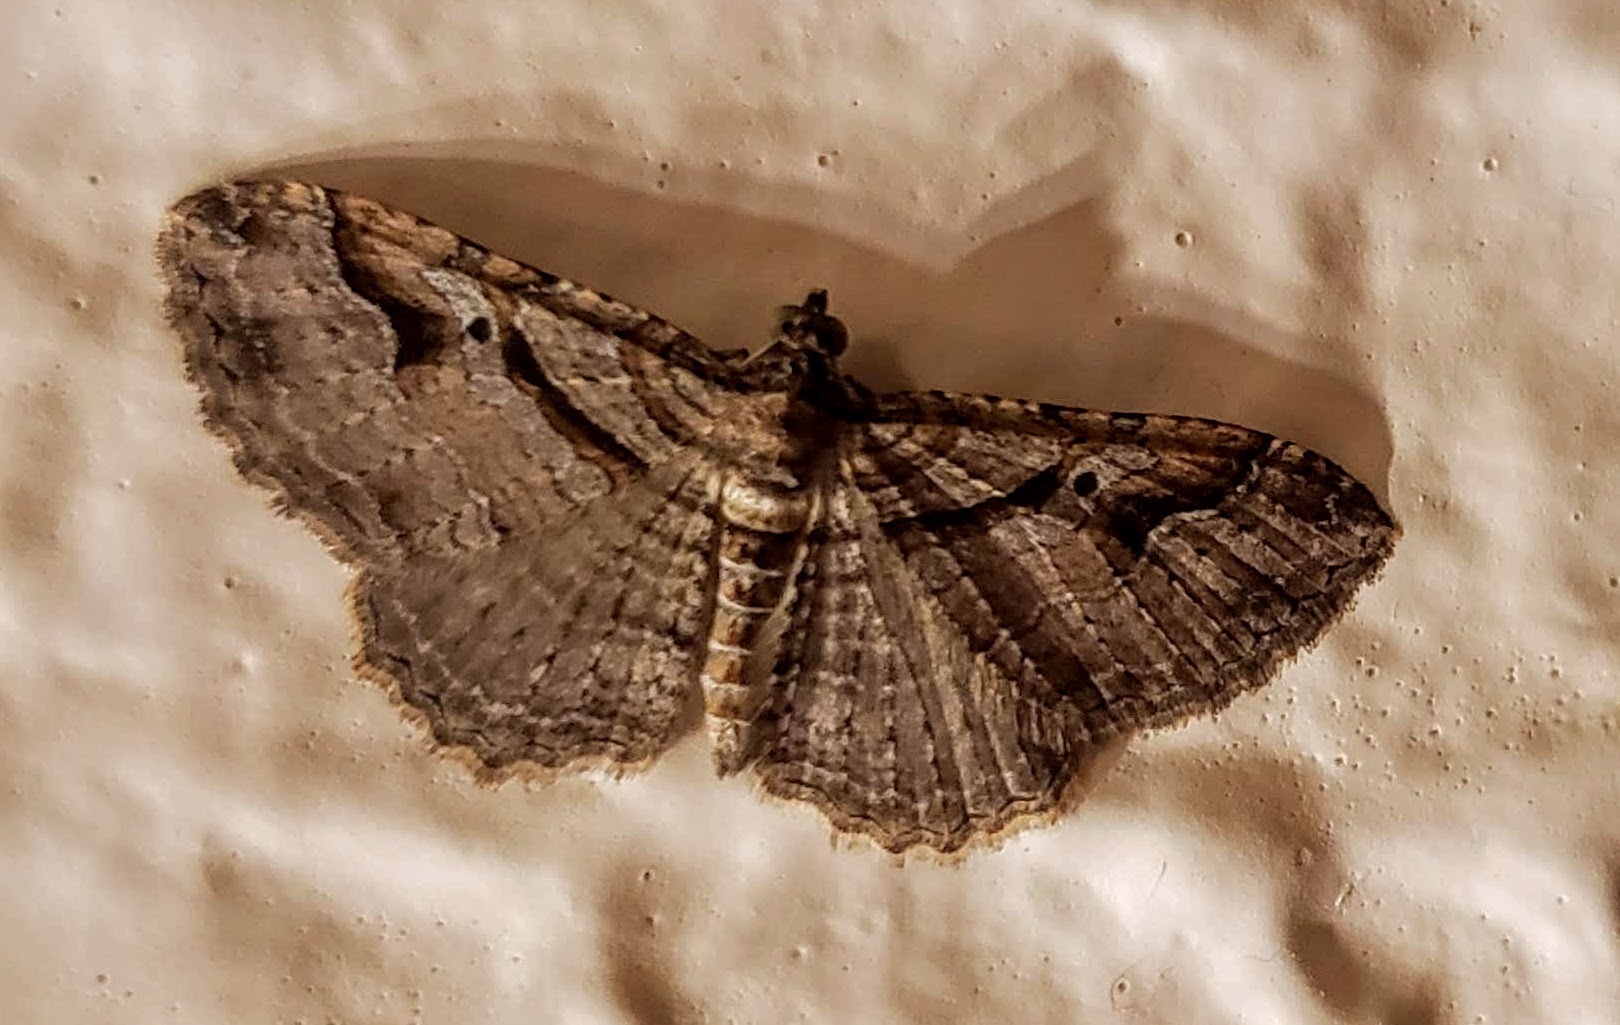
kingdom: Animalia
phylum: Arthropoda
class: Insecta
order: Lepidoptera
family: Geometridae
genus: Costaconvexa
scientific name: Costaconvexa centrostrigaria
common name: Bent-line carpet
